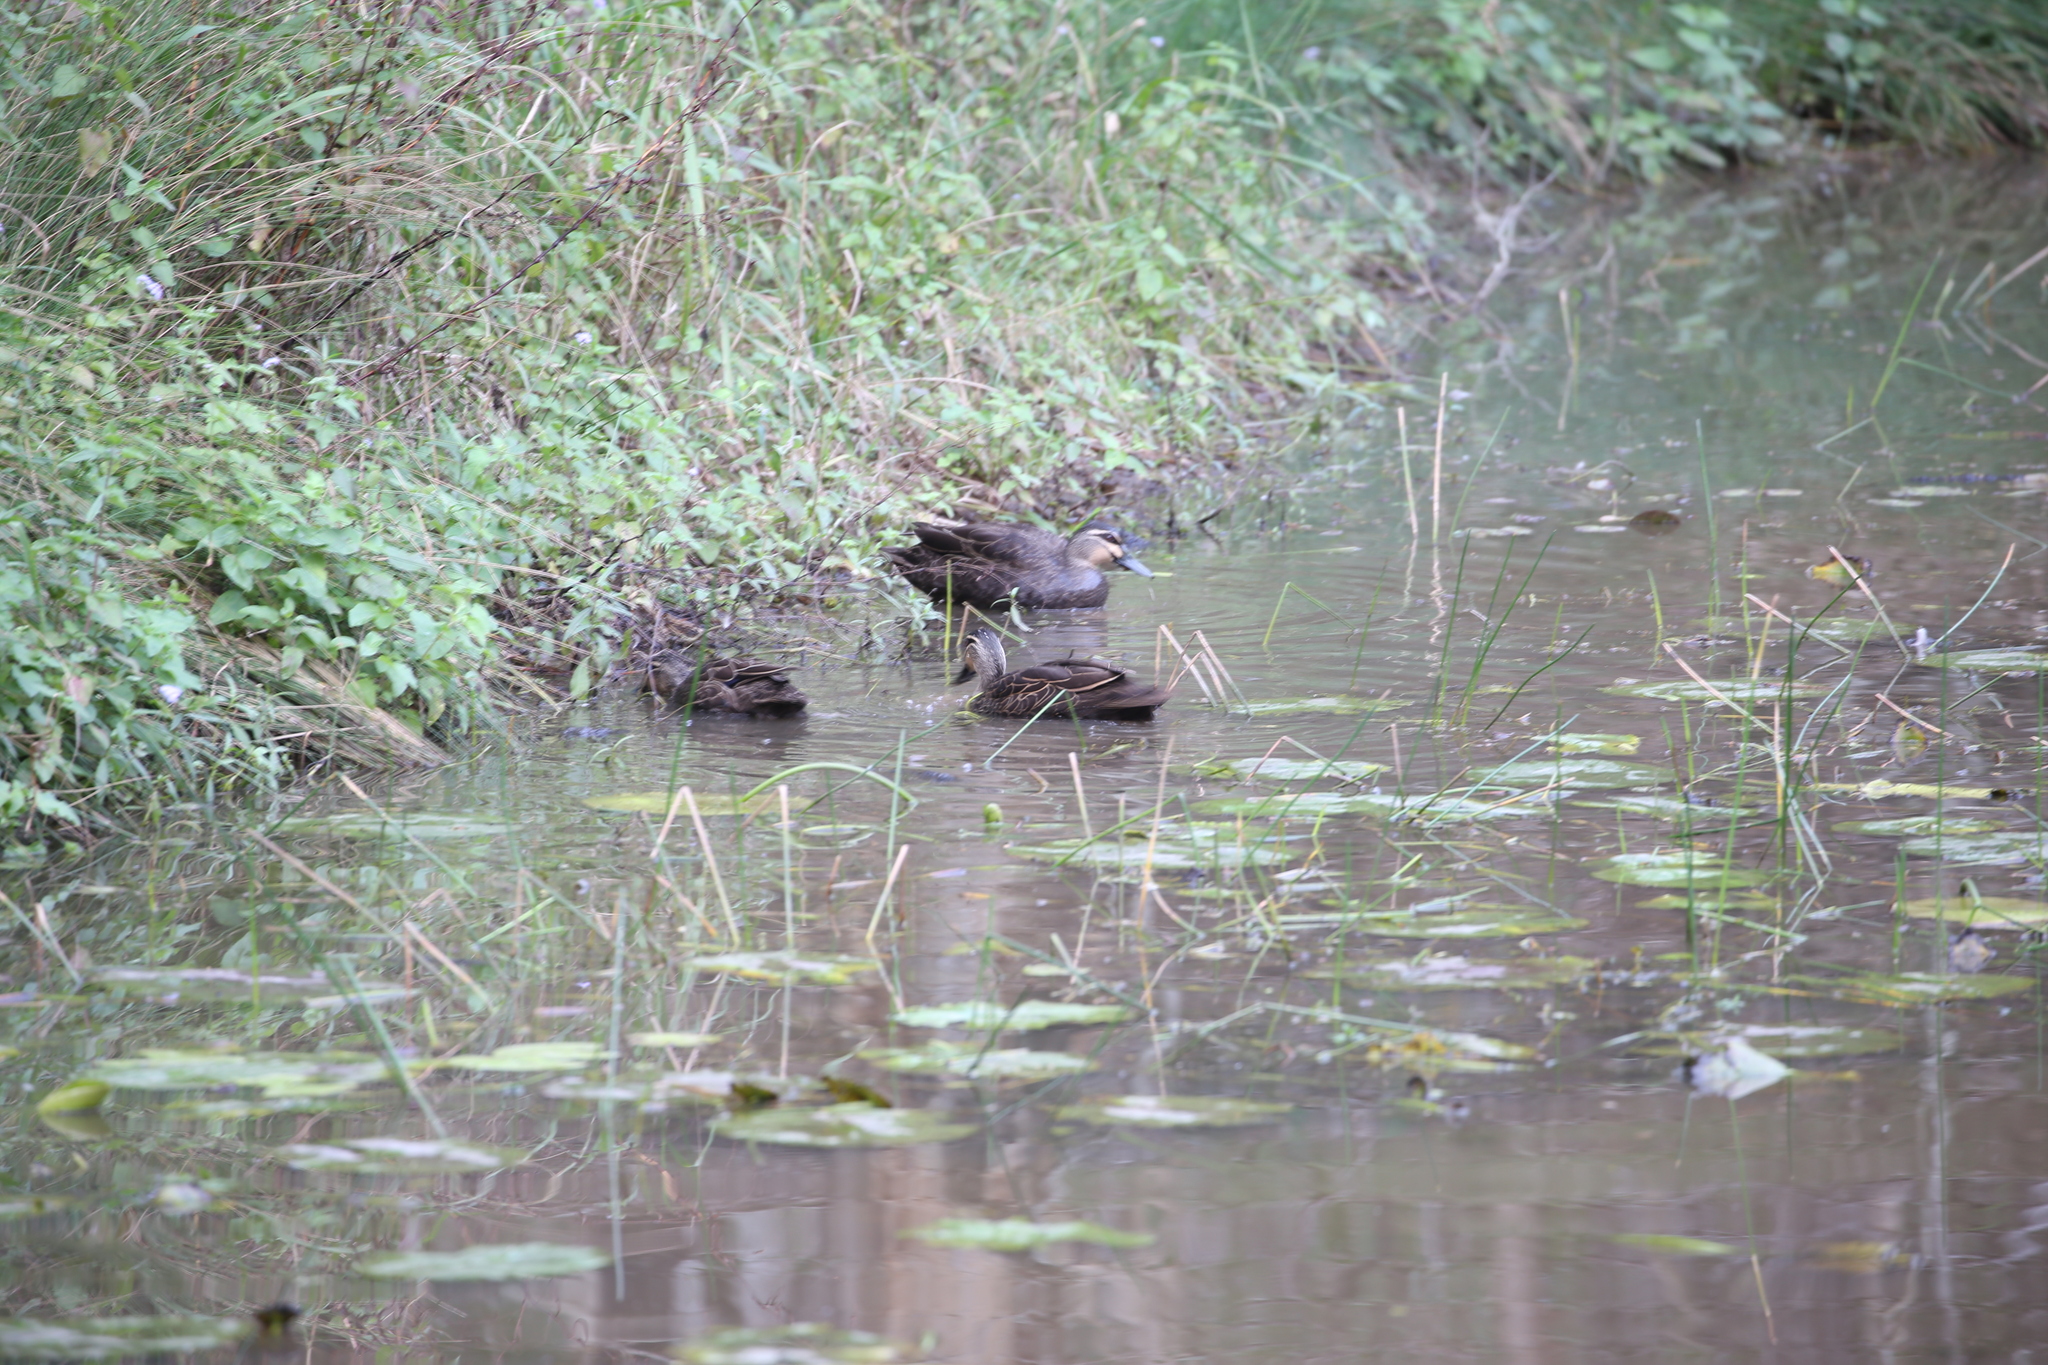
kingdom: Animalia
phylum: Chordata
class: Aves
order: Anseriformes
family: Anatidae
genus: Anas
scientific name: Anas superciliosa
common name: Pacific black duck
